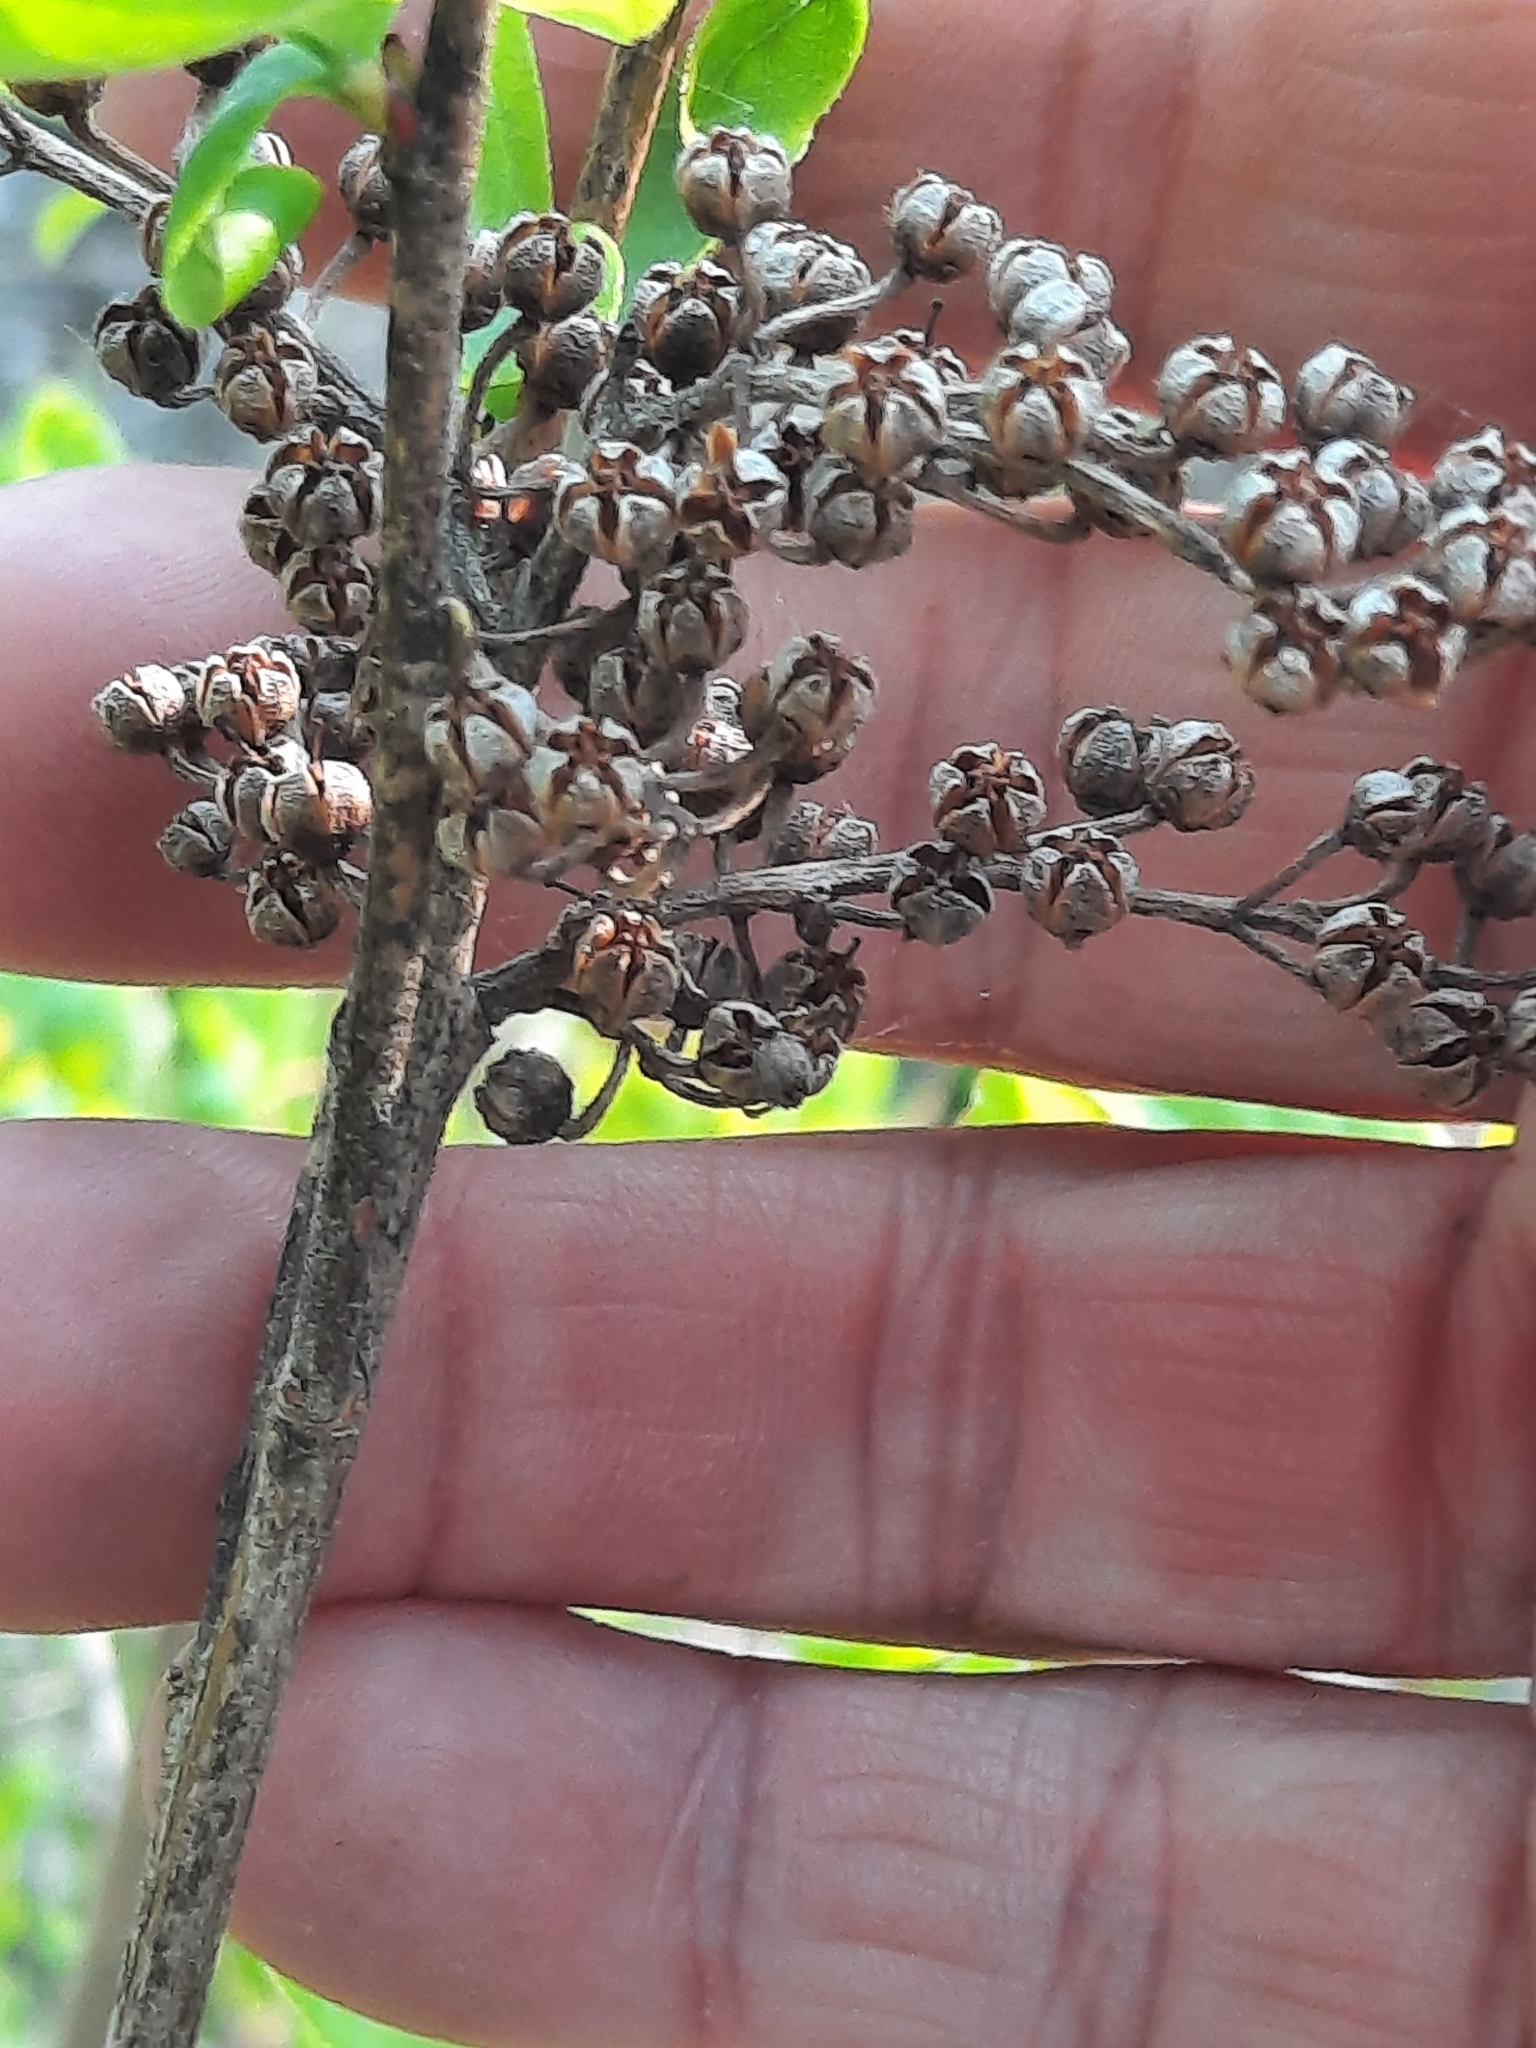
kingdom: Plantae
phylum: Tracheophyta
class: Magnoliopsida
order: Ericales
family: Ericaceae
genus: Lyonia
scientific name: Lyonia ligustrina
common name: Maleberry
